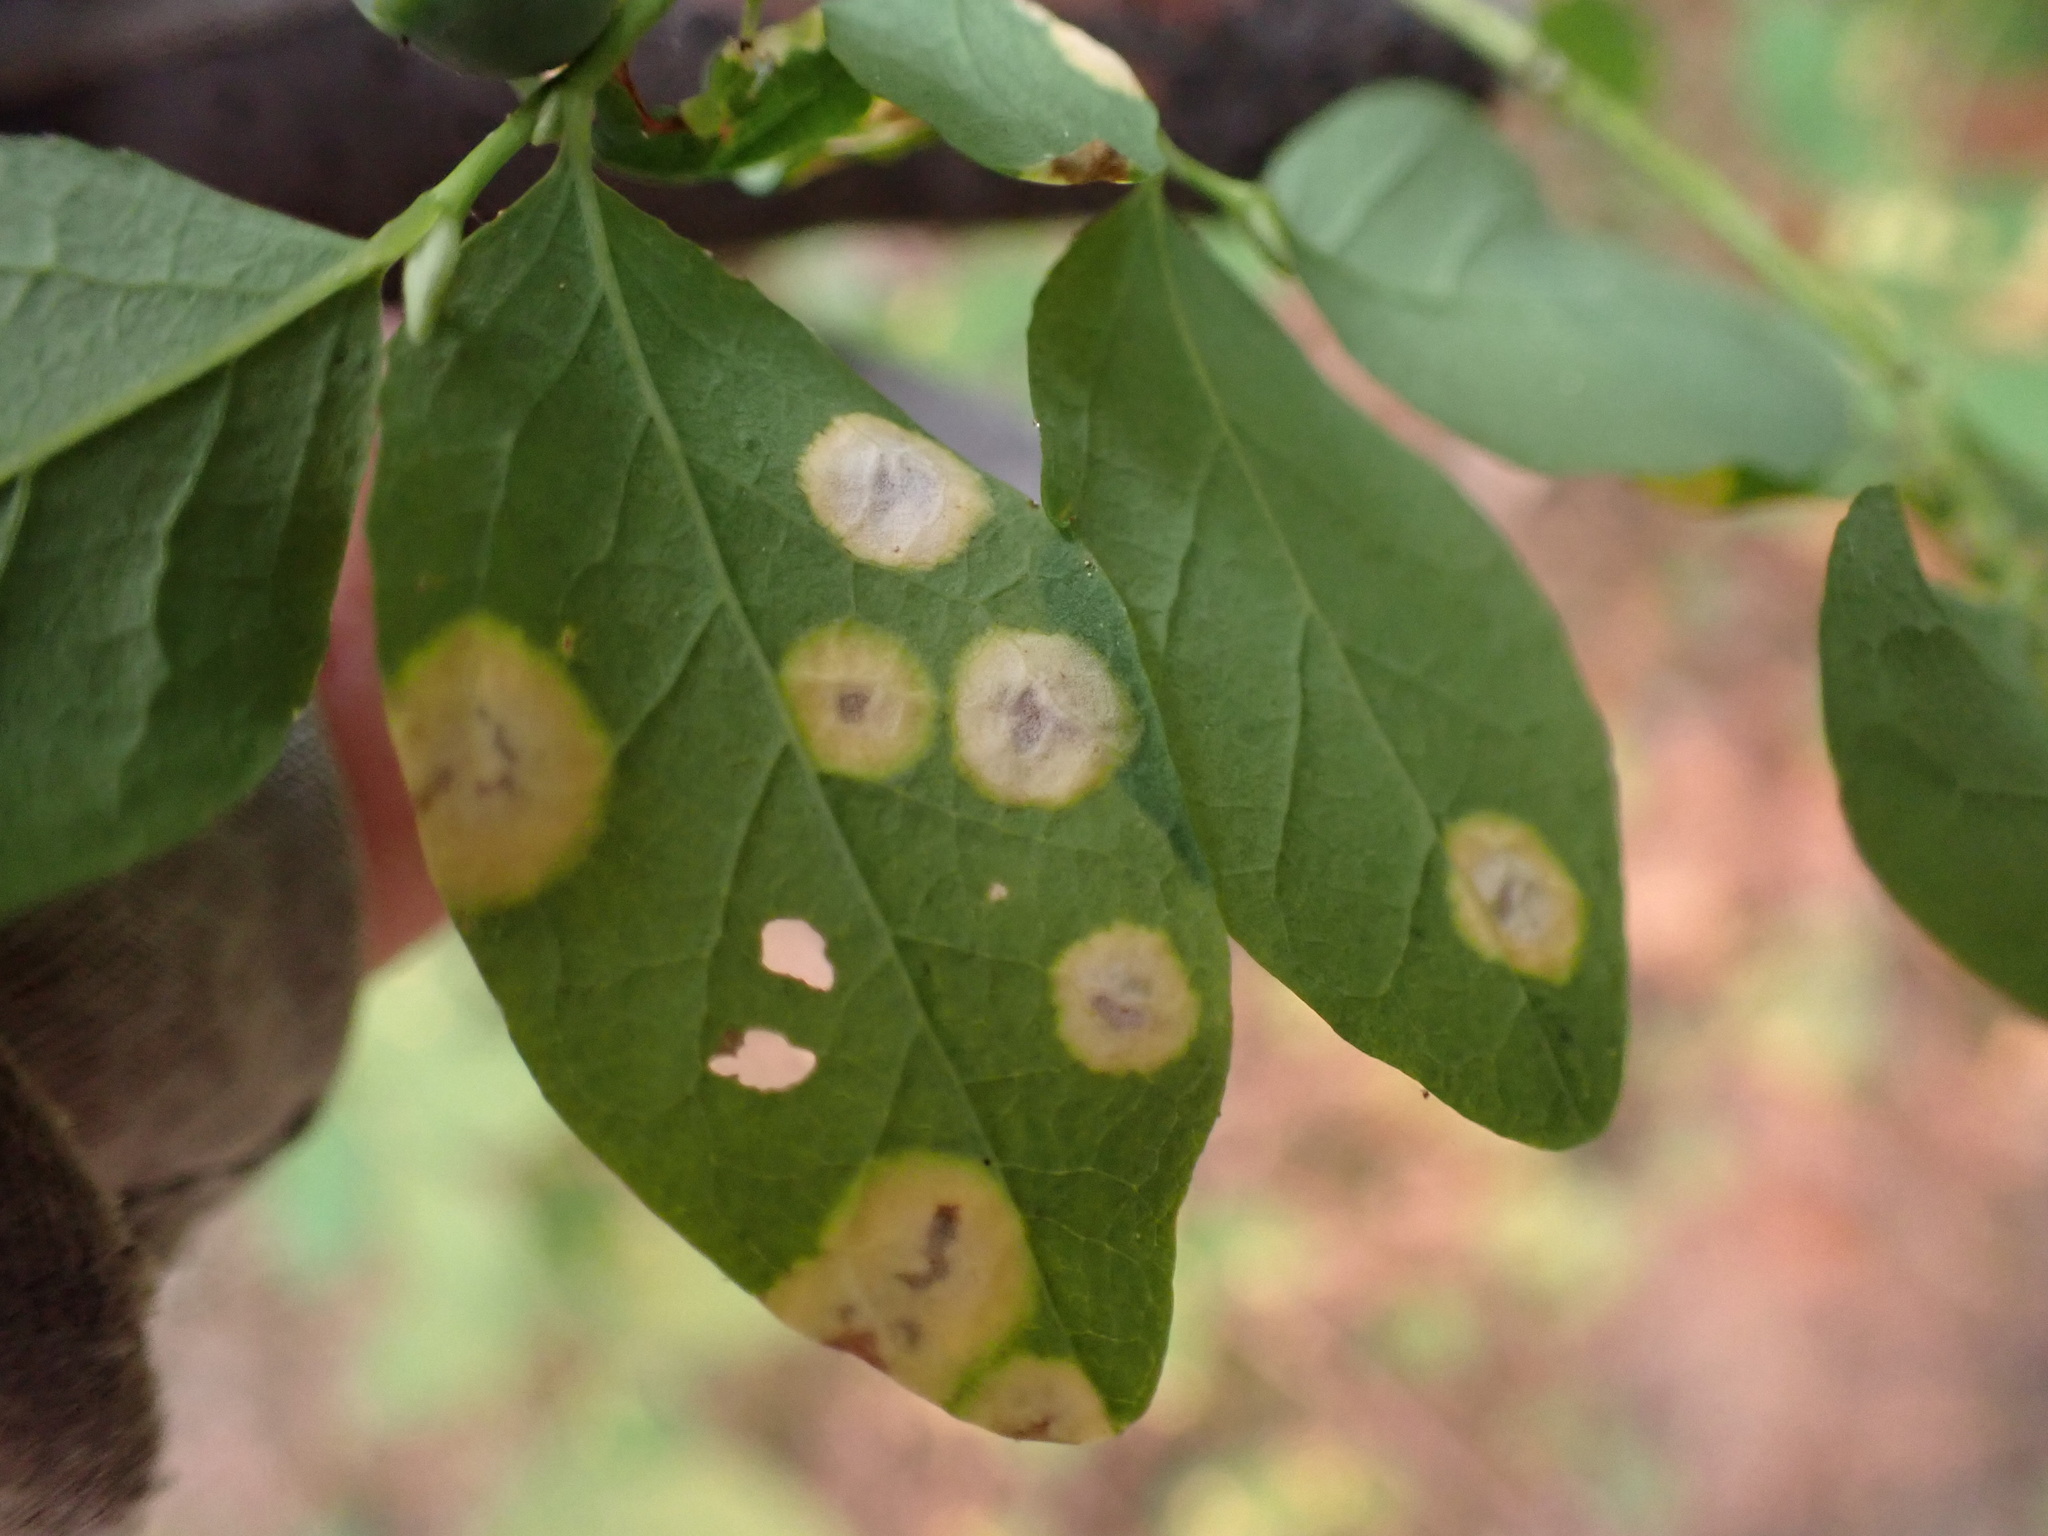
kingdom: Fungi
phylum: Basidiomycota
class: Exobasidiomycetes
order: Exobasidiales
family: Exobasidiaceae
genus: Exobasidium
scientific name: Exobasidium cordilleranum
